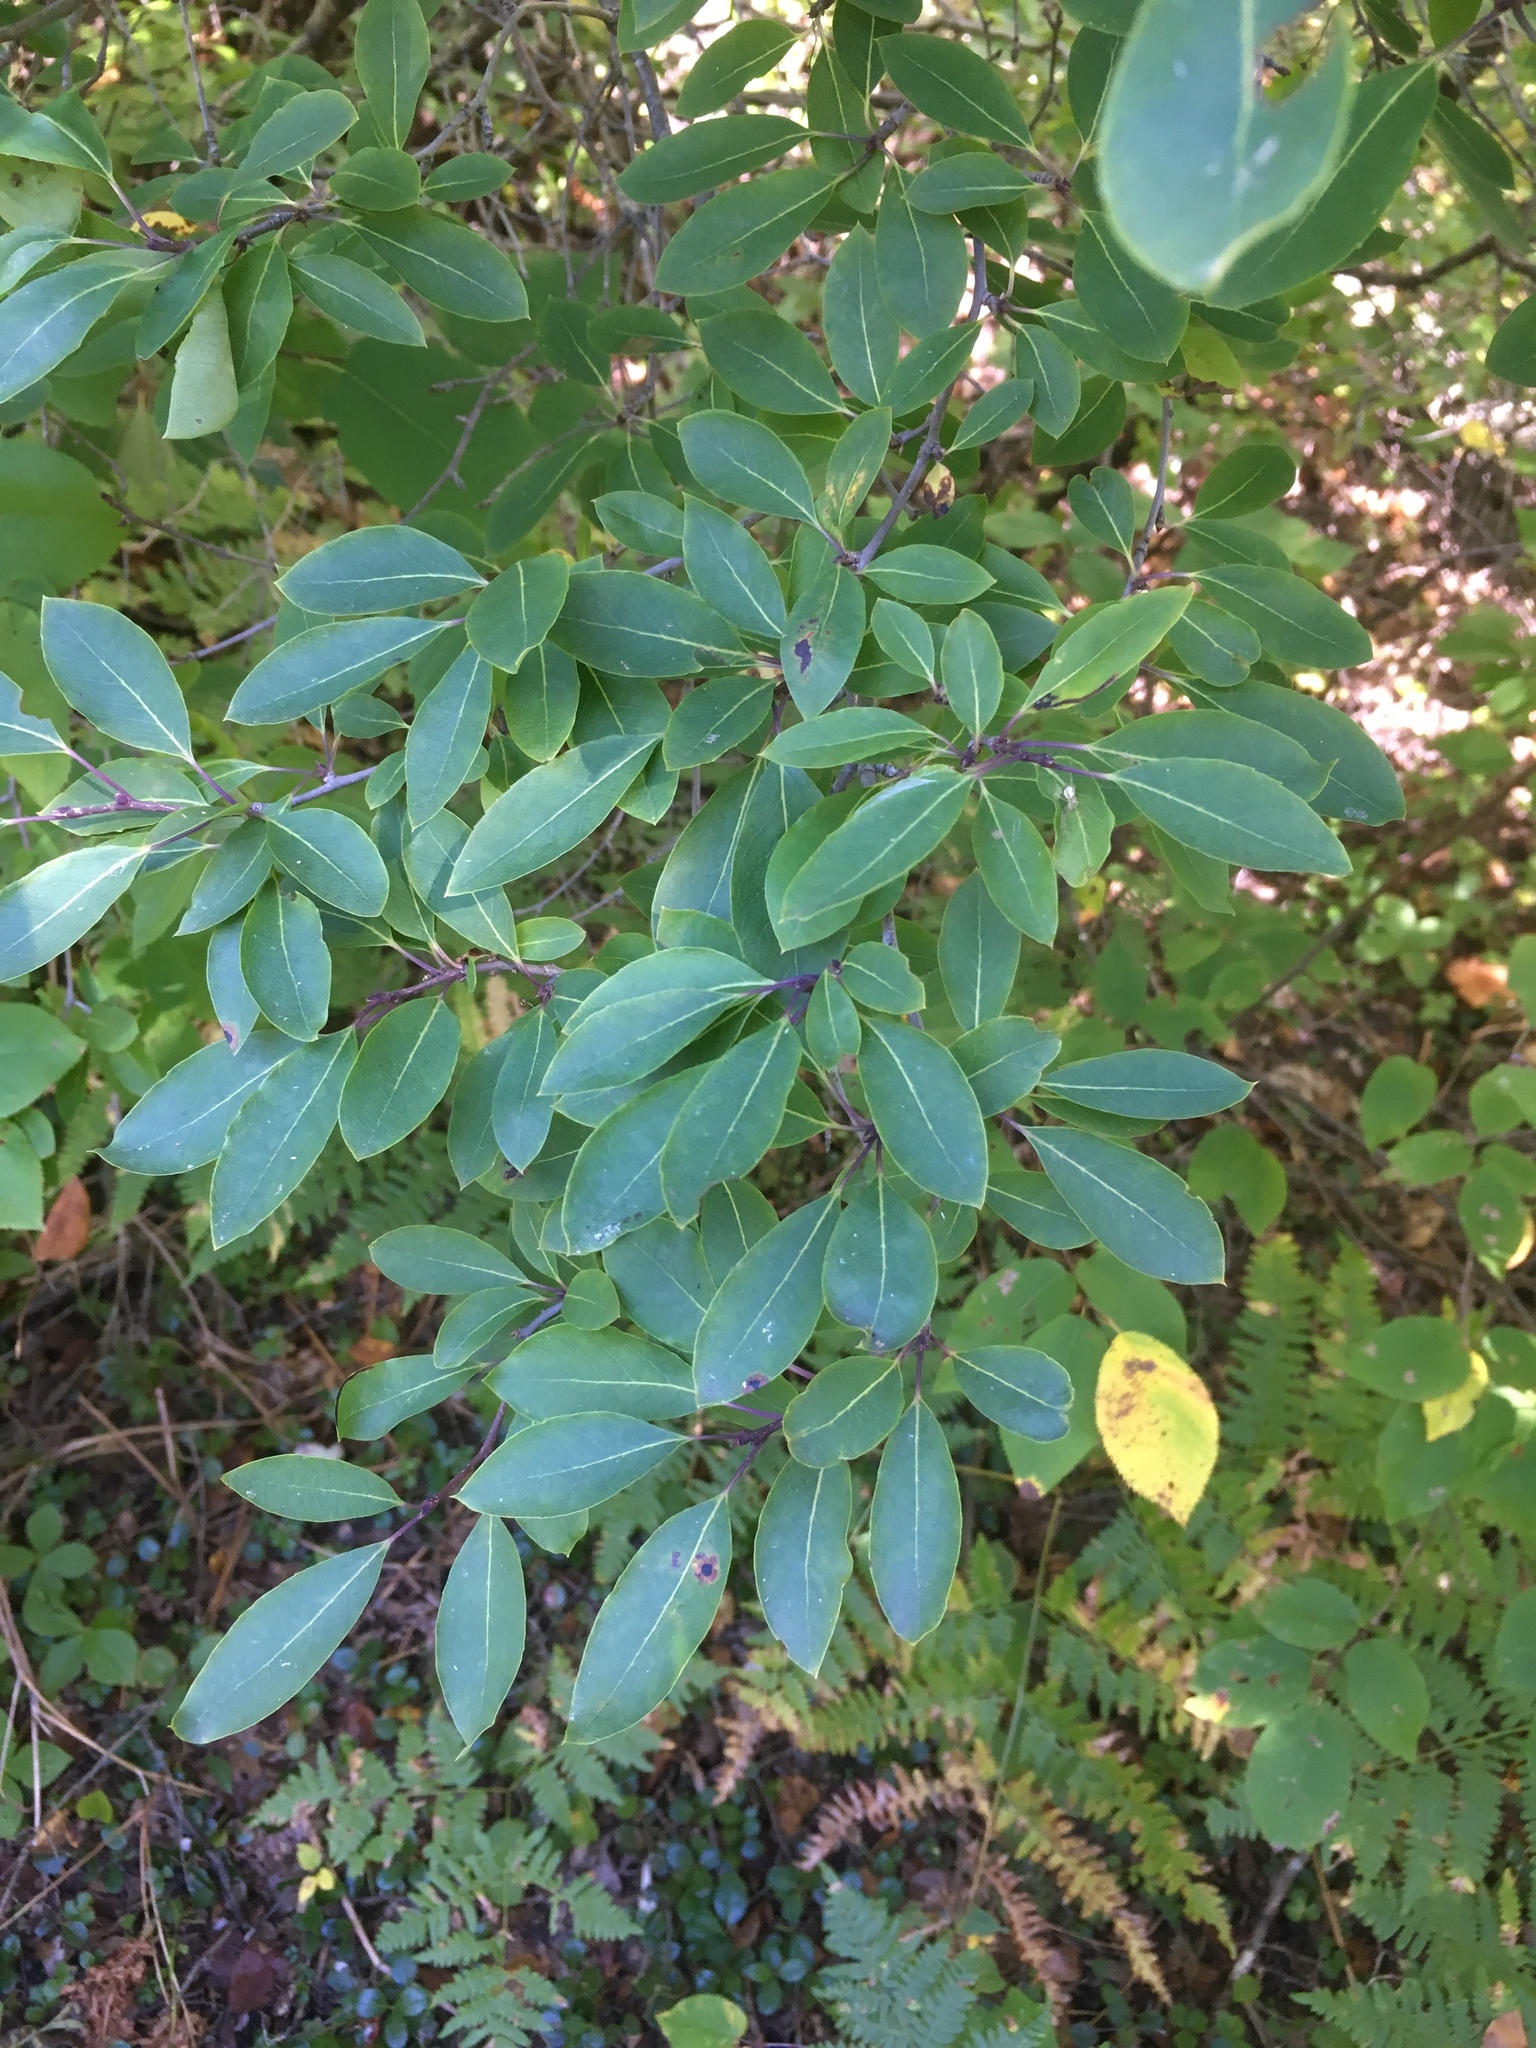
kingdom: Plantae
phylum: Tracheophyta
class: Magnoliopsida
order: Aquifoliales
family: Aquifoliaceae
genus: Ilex
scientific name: Ilex mucronata
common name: Catberry
